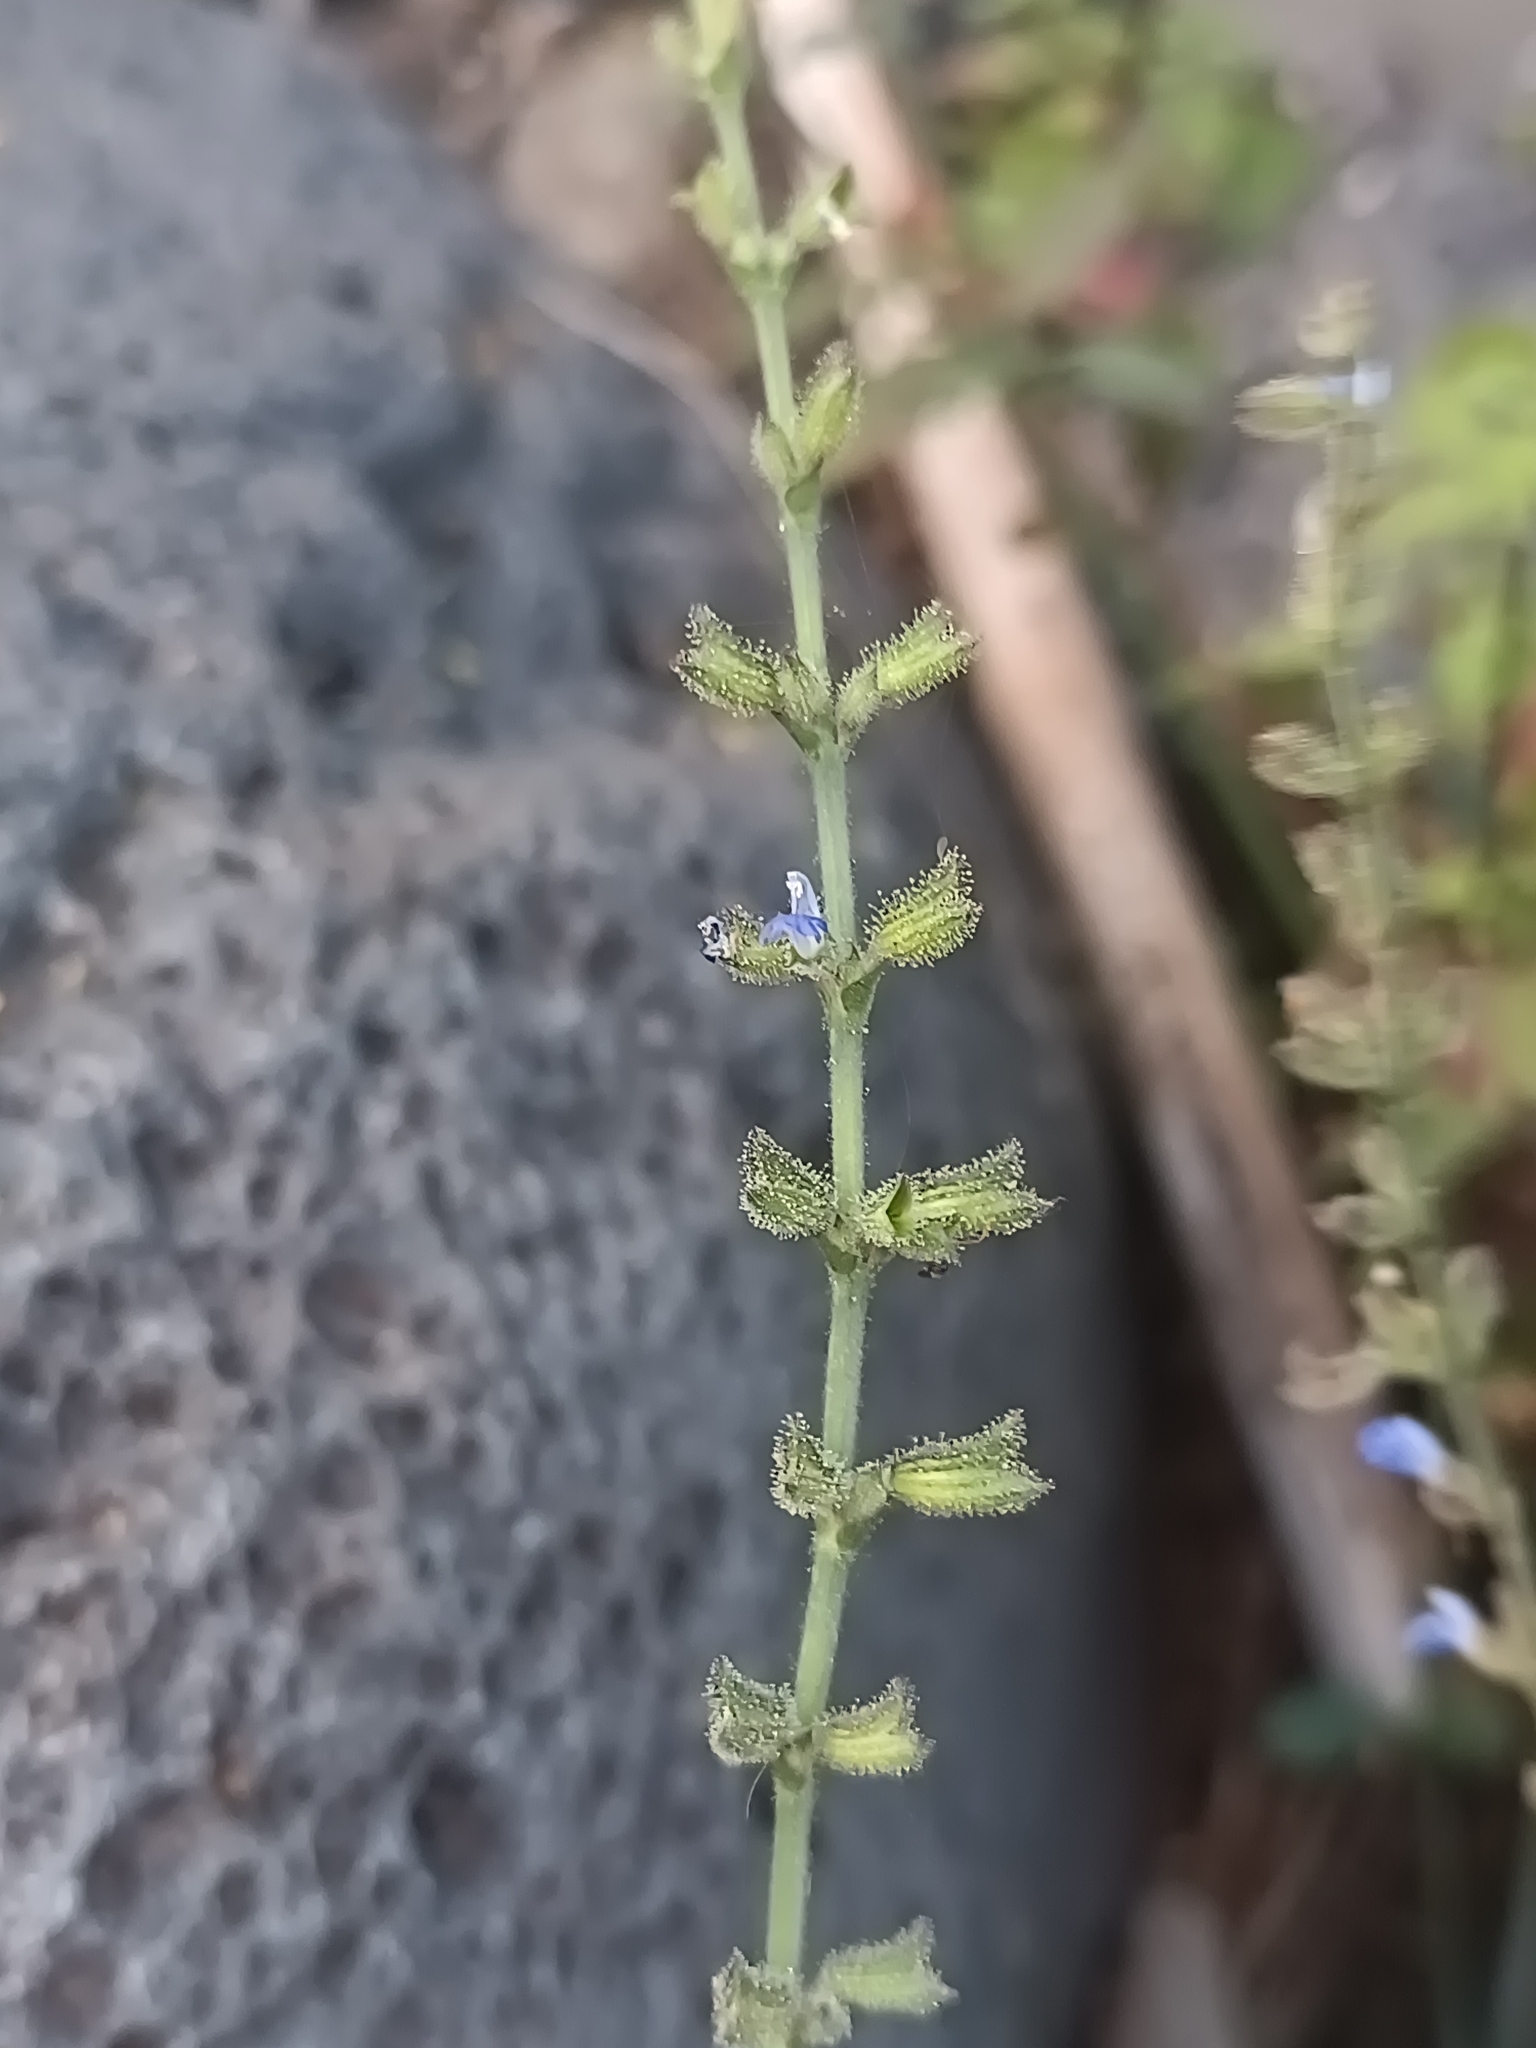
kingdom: Plantae
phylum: Tracheophyta
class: Magnoliopsida
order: Lamiales
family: Lamiaceae
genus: Salvia
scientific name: Salvia misella
